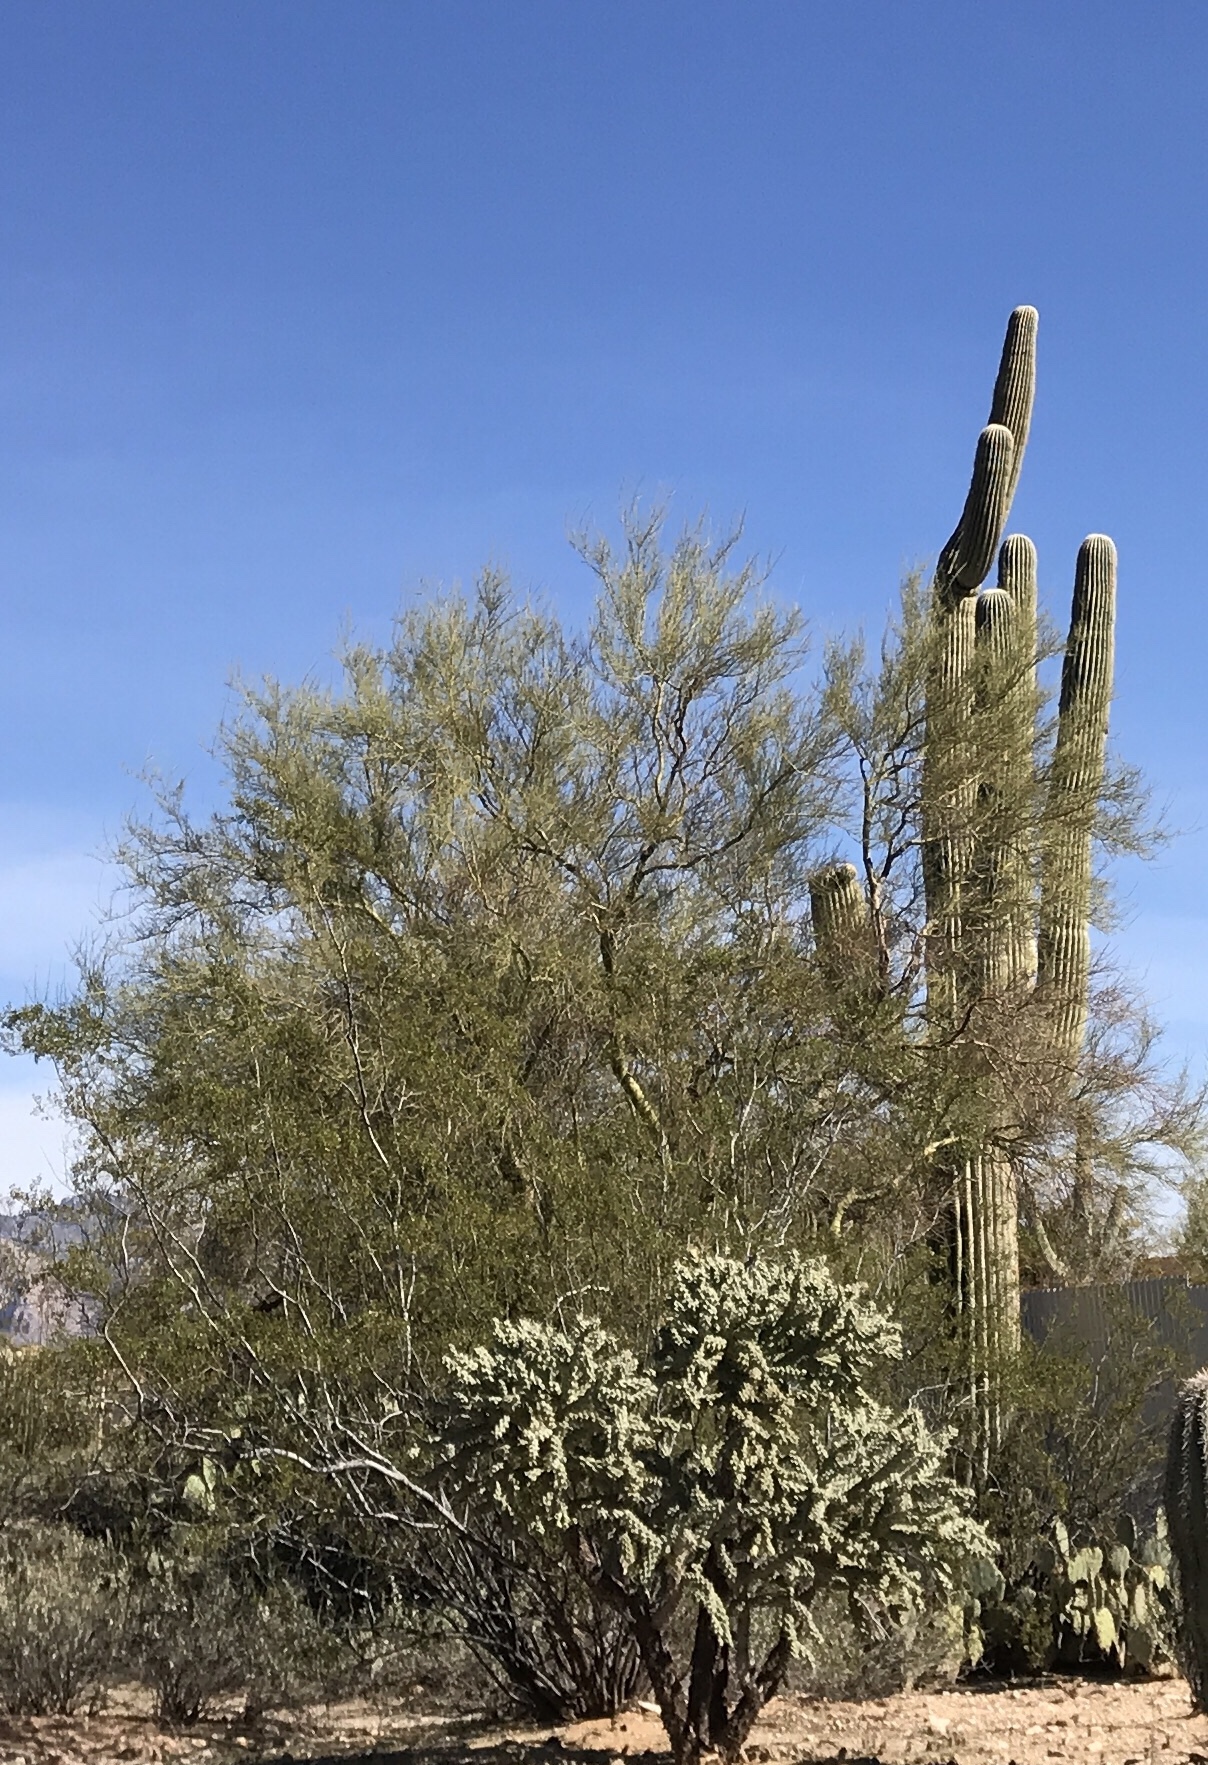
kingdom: Plantae
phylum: Tracheophyta
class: Magnoliopsida
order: Fabales
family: Fabaceae
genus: Parkinsonia
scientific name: Parkinsonia microphylla
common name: Yellow paloverde
